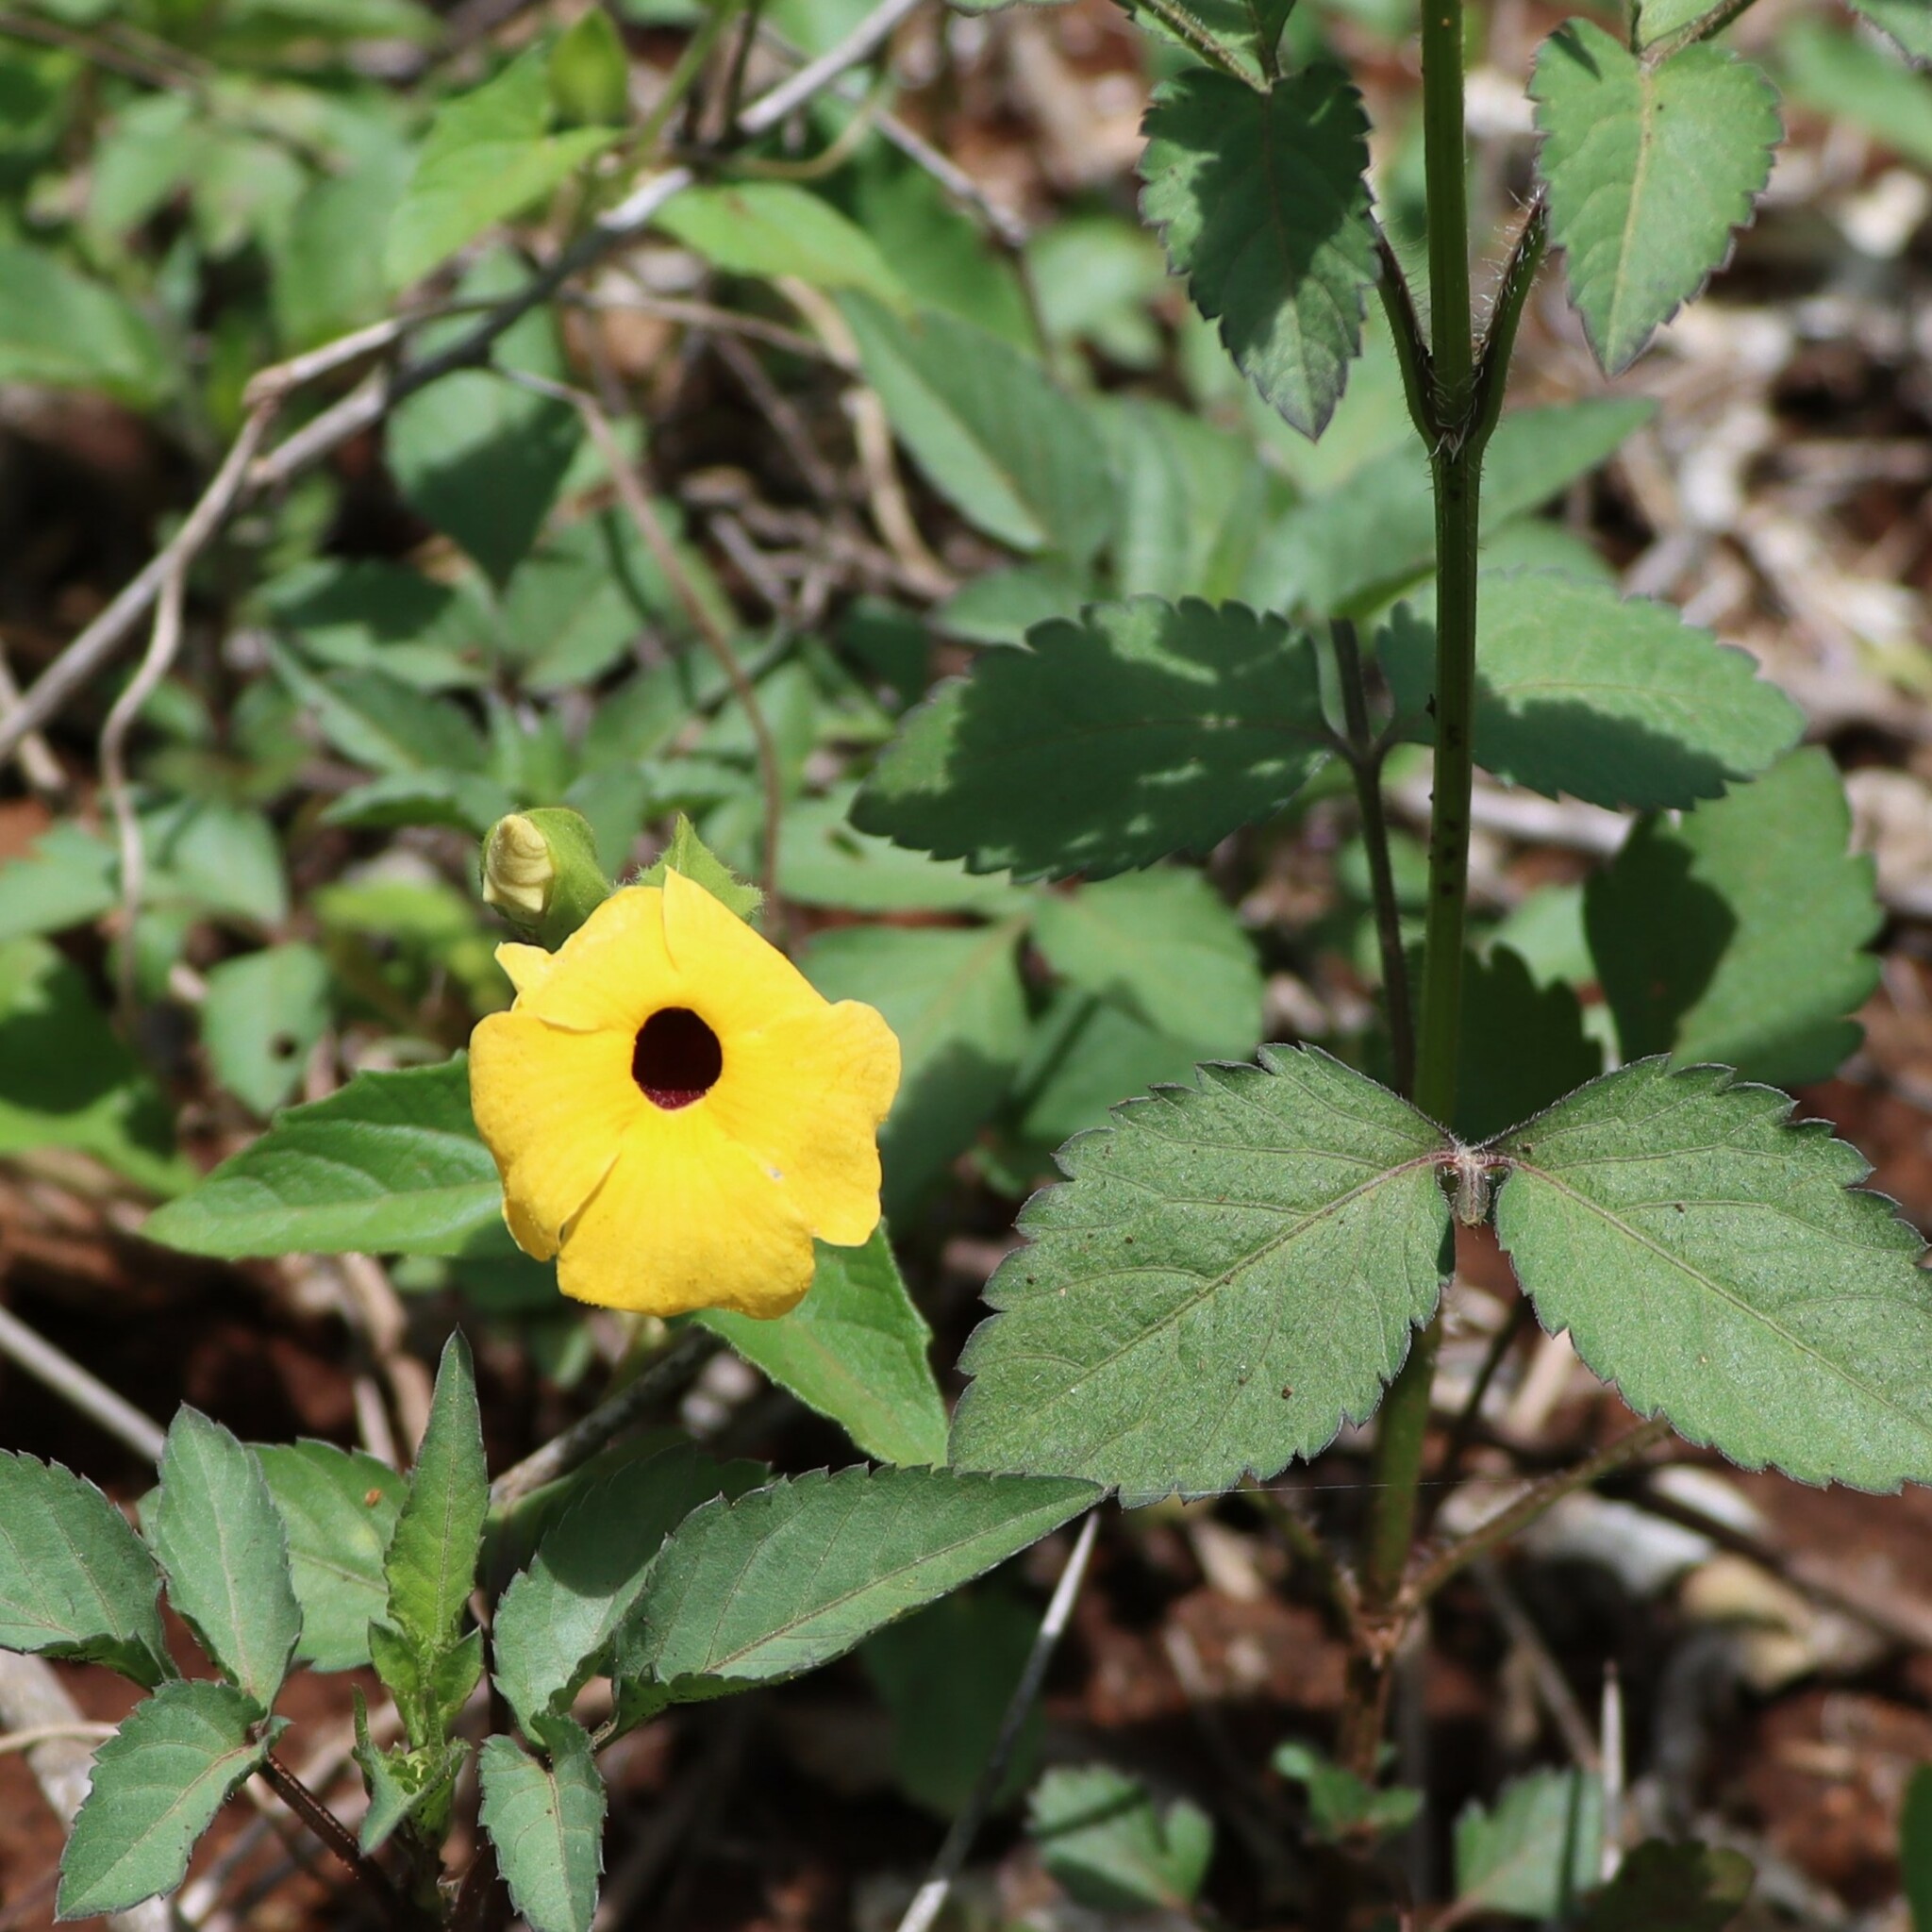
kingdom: Plantae
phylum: Tracheophyta
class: Magnoliopsida
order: Lamiales
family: Acanthaceae
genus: Thunbergia
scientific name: Thunbergia alata
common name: Blackeyed susan vine
